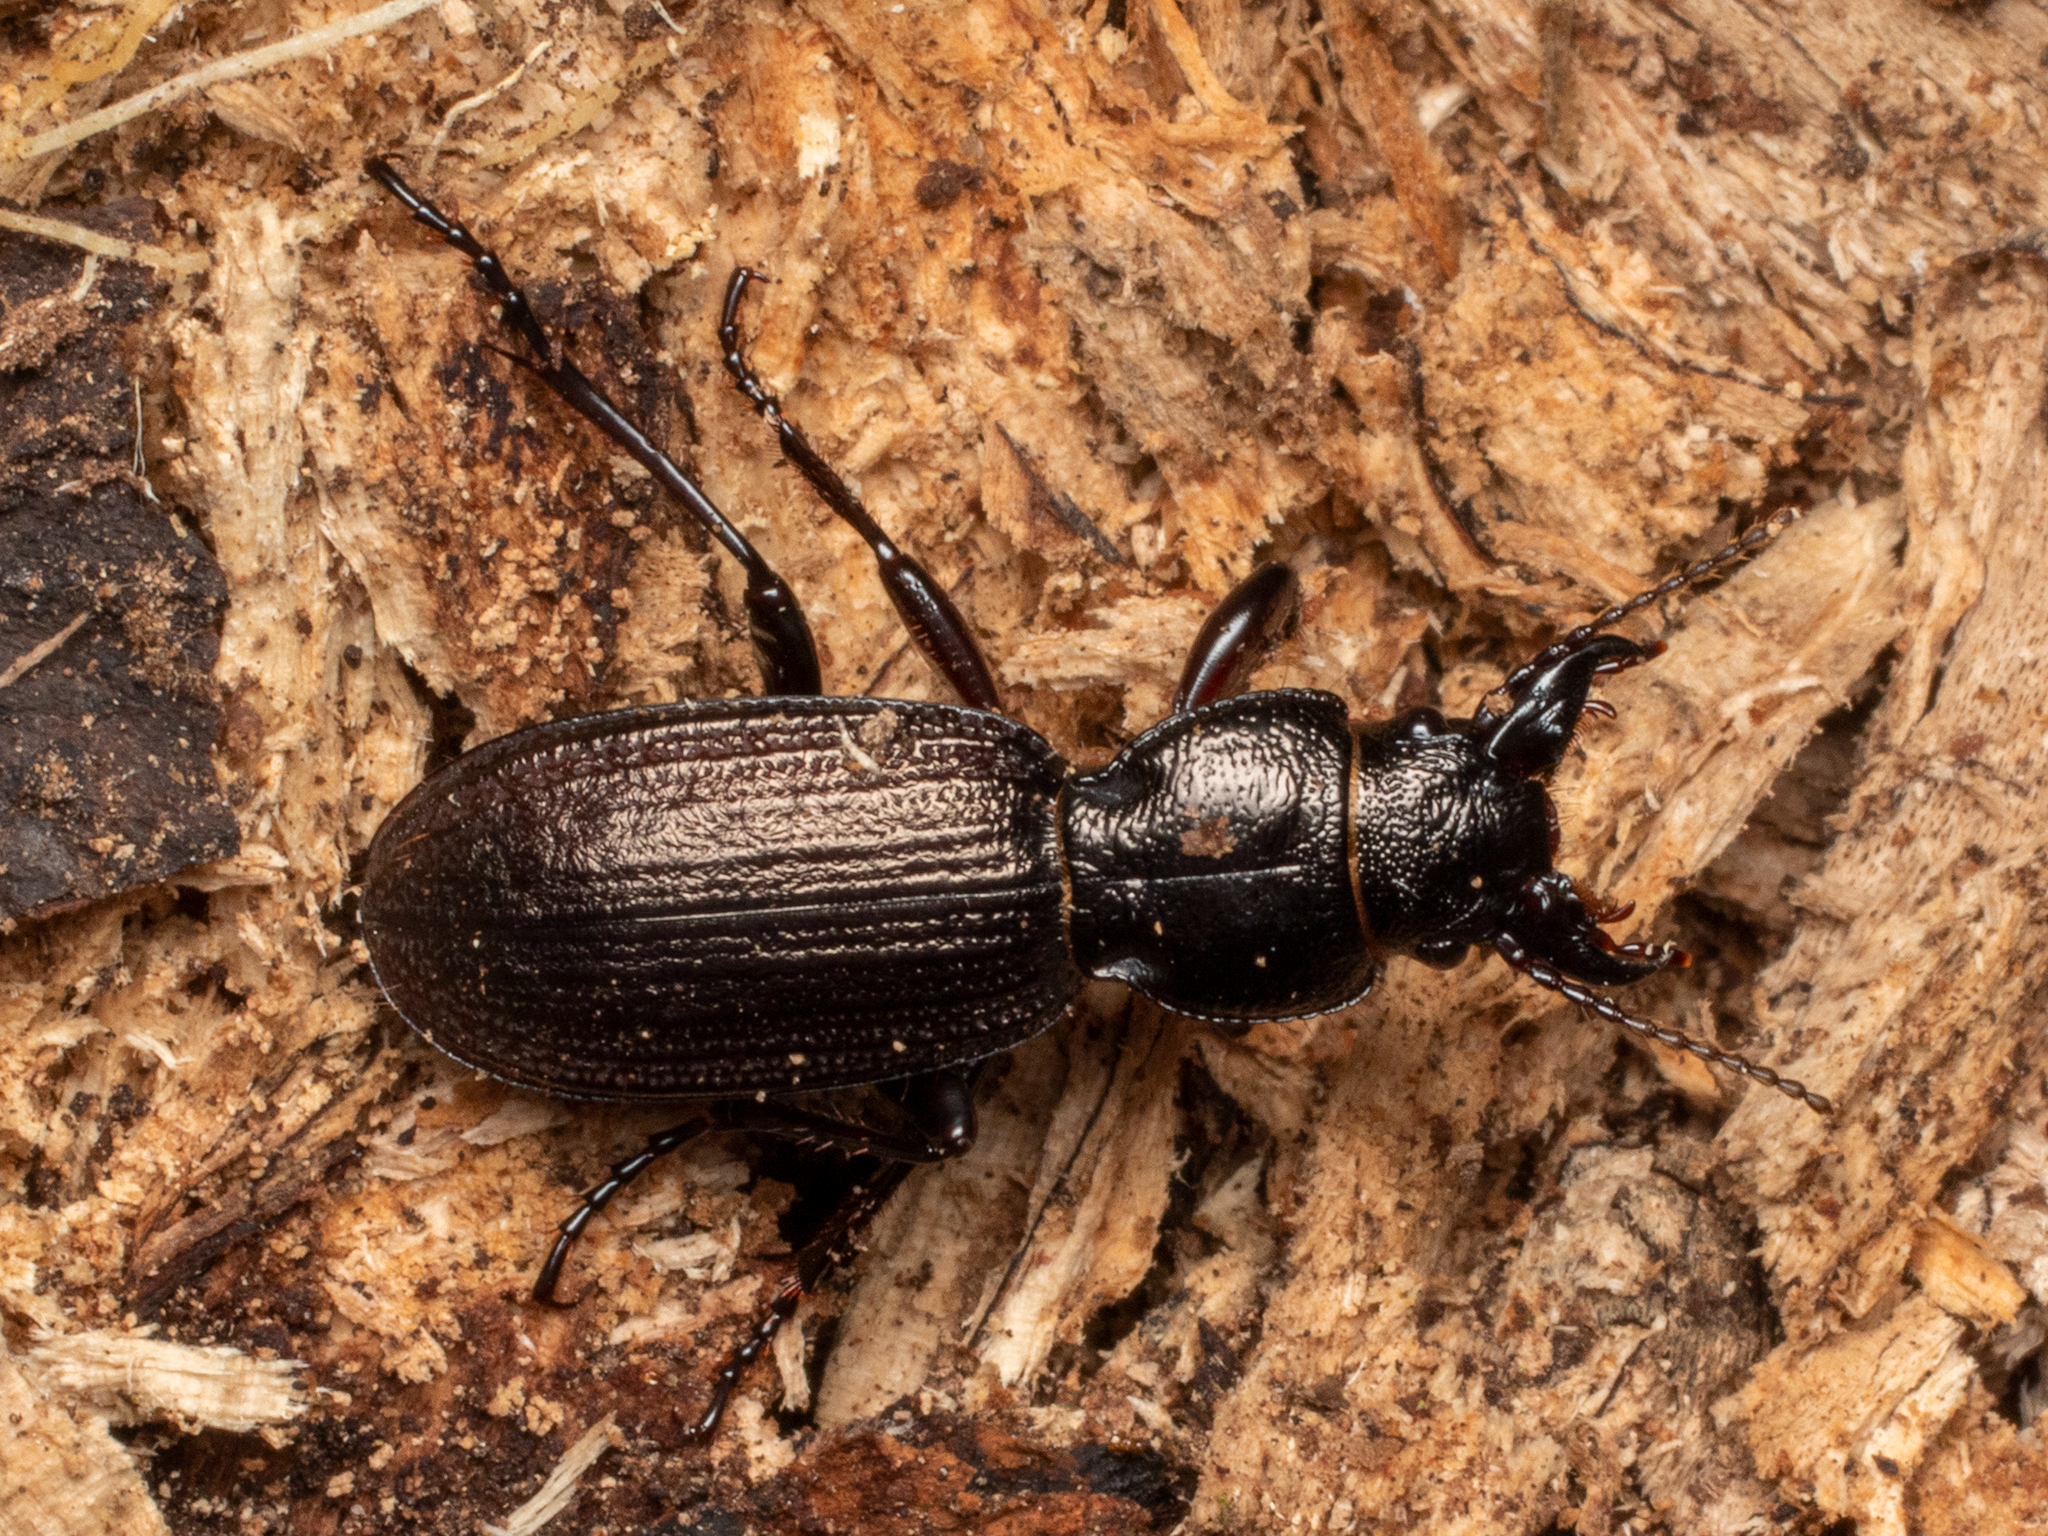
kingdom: Animalia
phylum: Arthropoda
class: Insecta
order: Coleoptera
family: Carabidae
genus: Mecodema
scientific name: Mecodema sculpturatum
